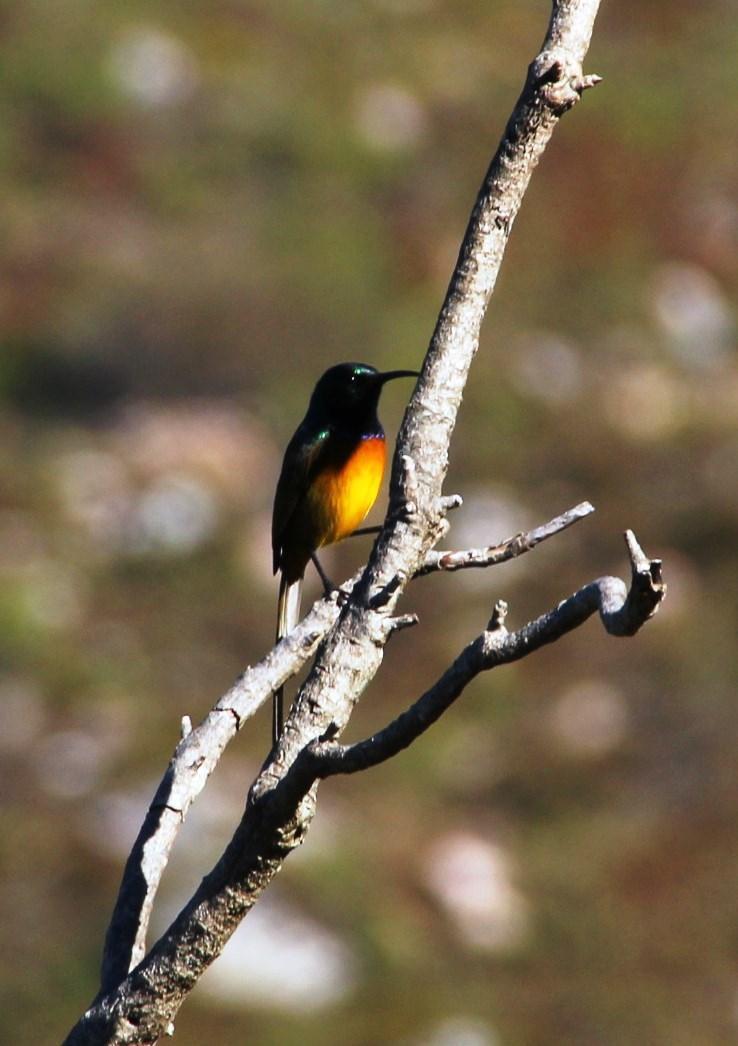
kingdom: Animalia
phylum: Chordata
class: Aves
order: Passeriformes
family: Nectariniidae
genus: Anthobaphes
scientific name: Anthobaphes violacea
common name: Orange-breasted sunbird
